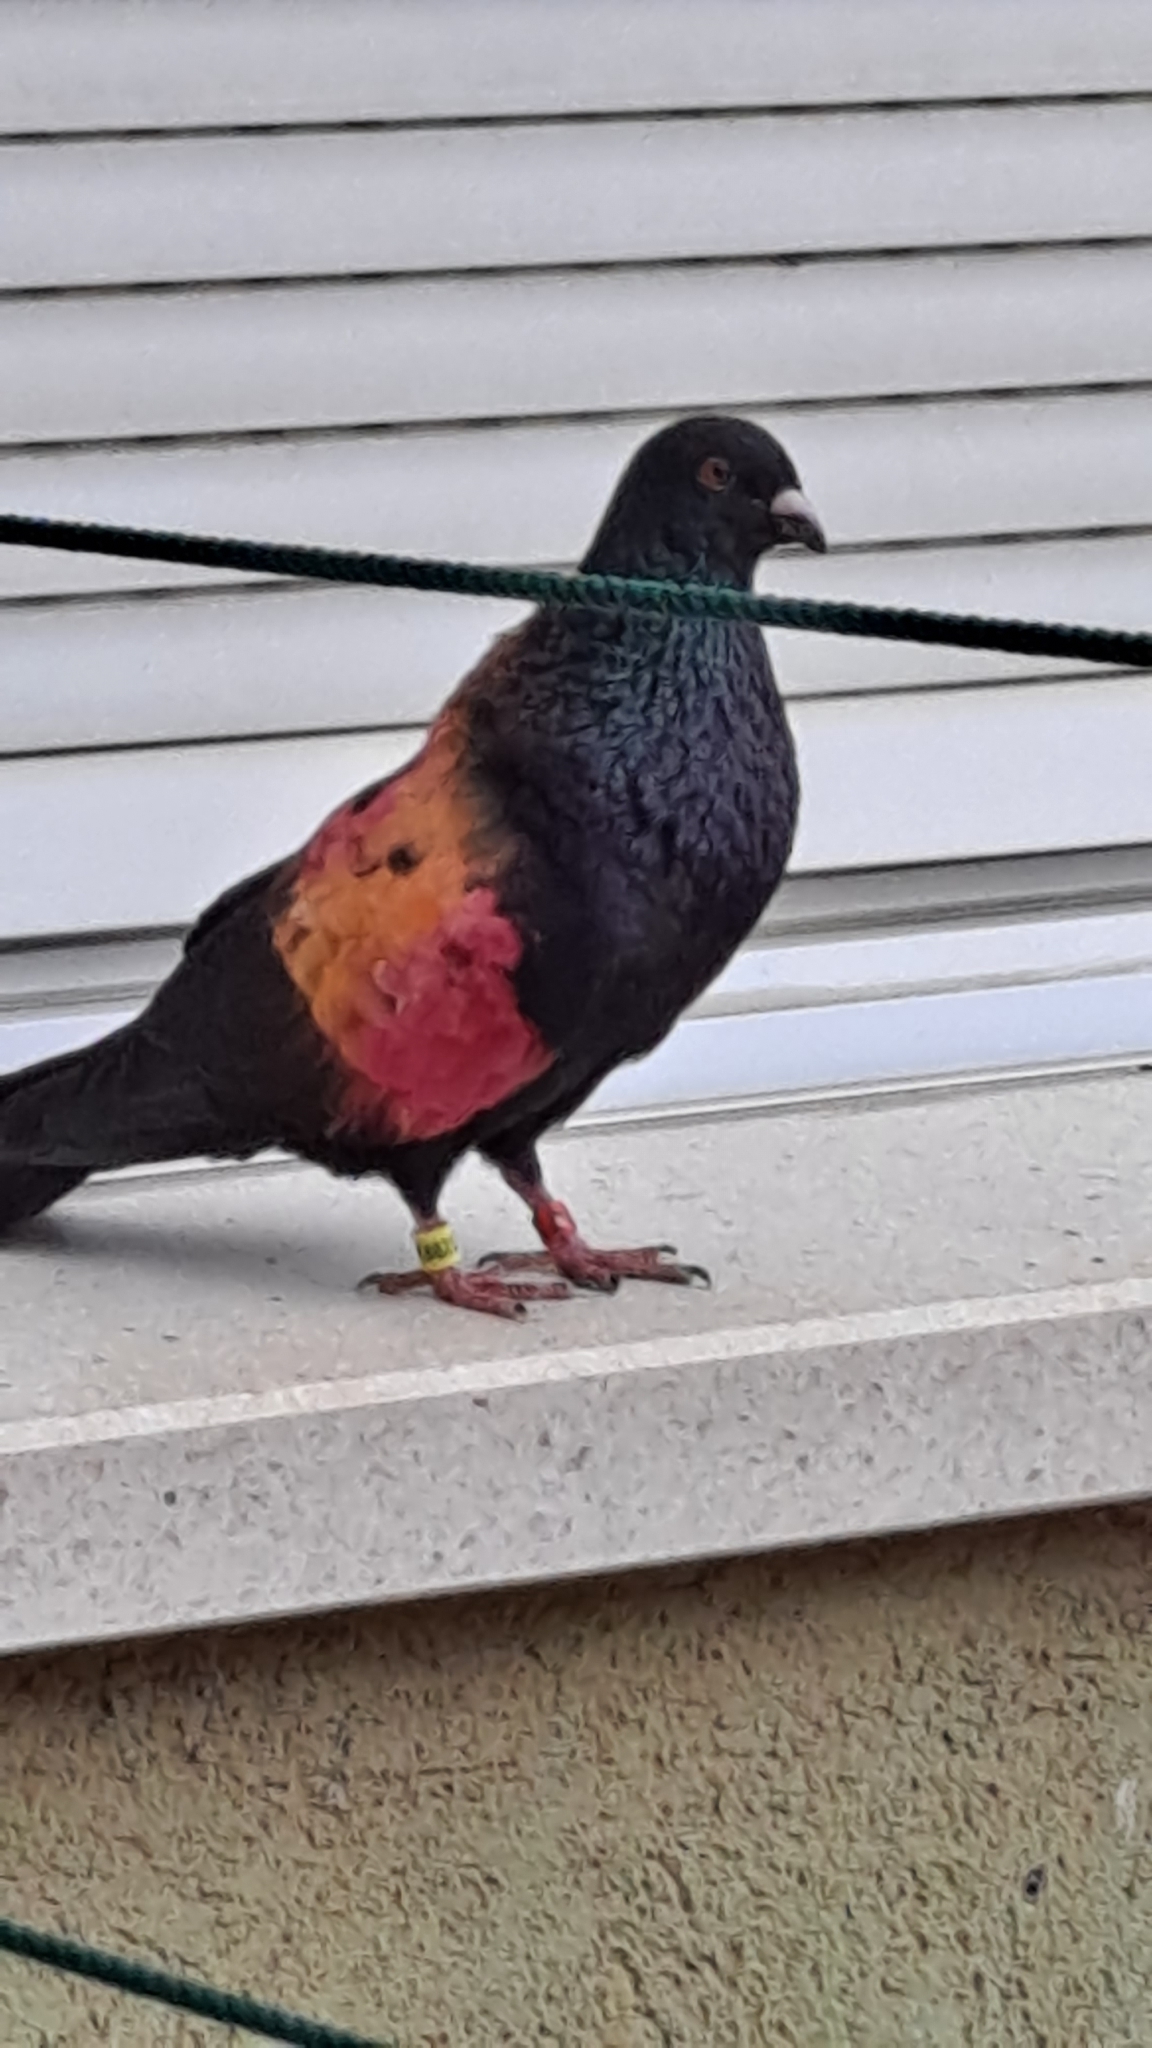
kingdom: Animalia
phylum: Chordata
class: Aves
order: Columbiformes
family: Columbidae
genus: Columba
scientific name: Columba livia
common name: Rock pigeon
